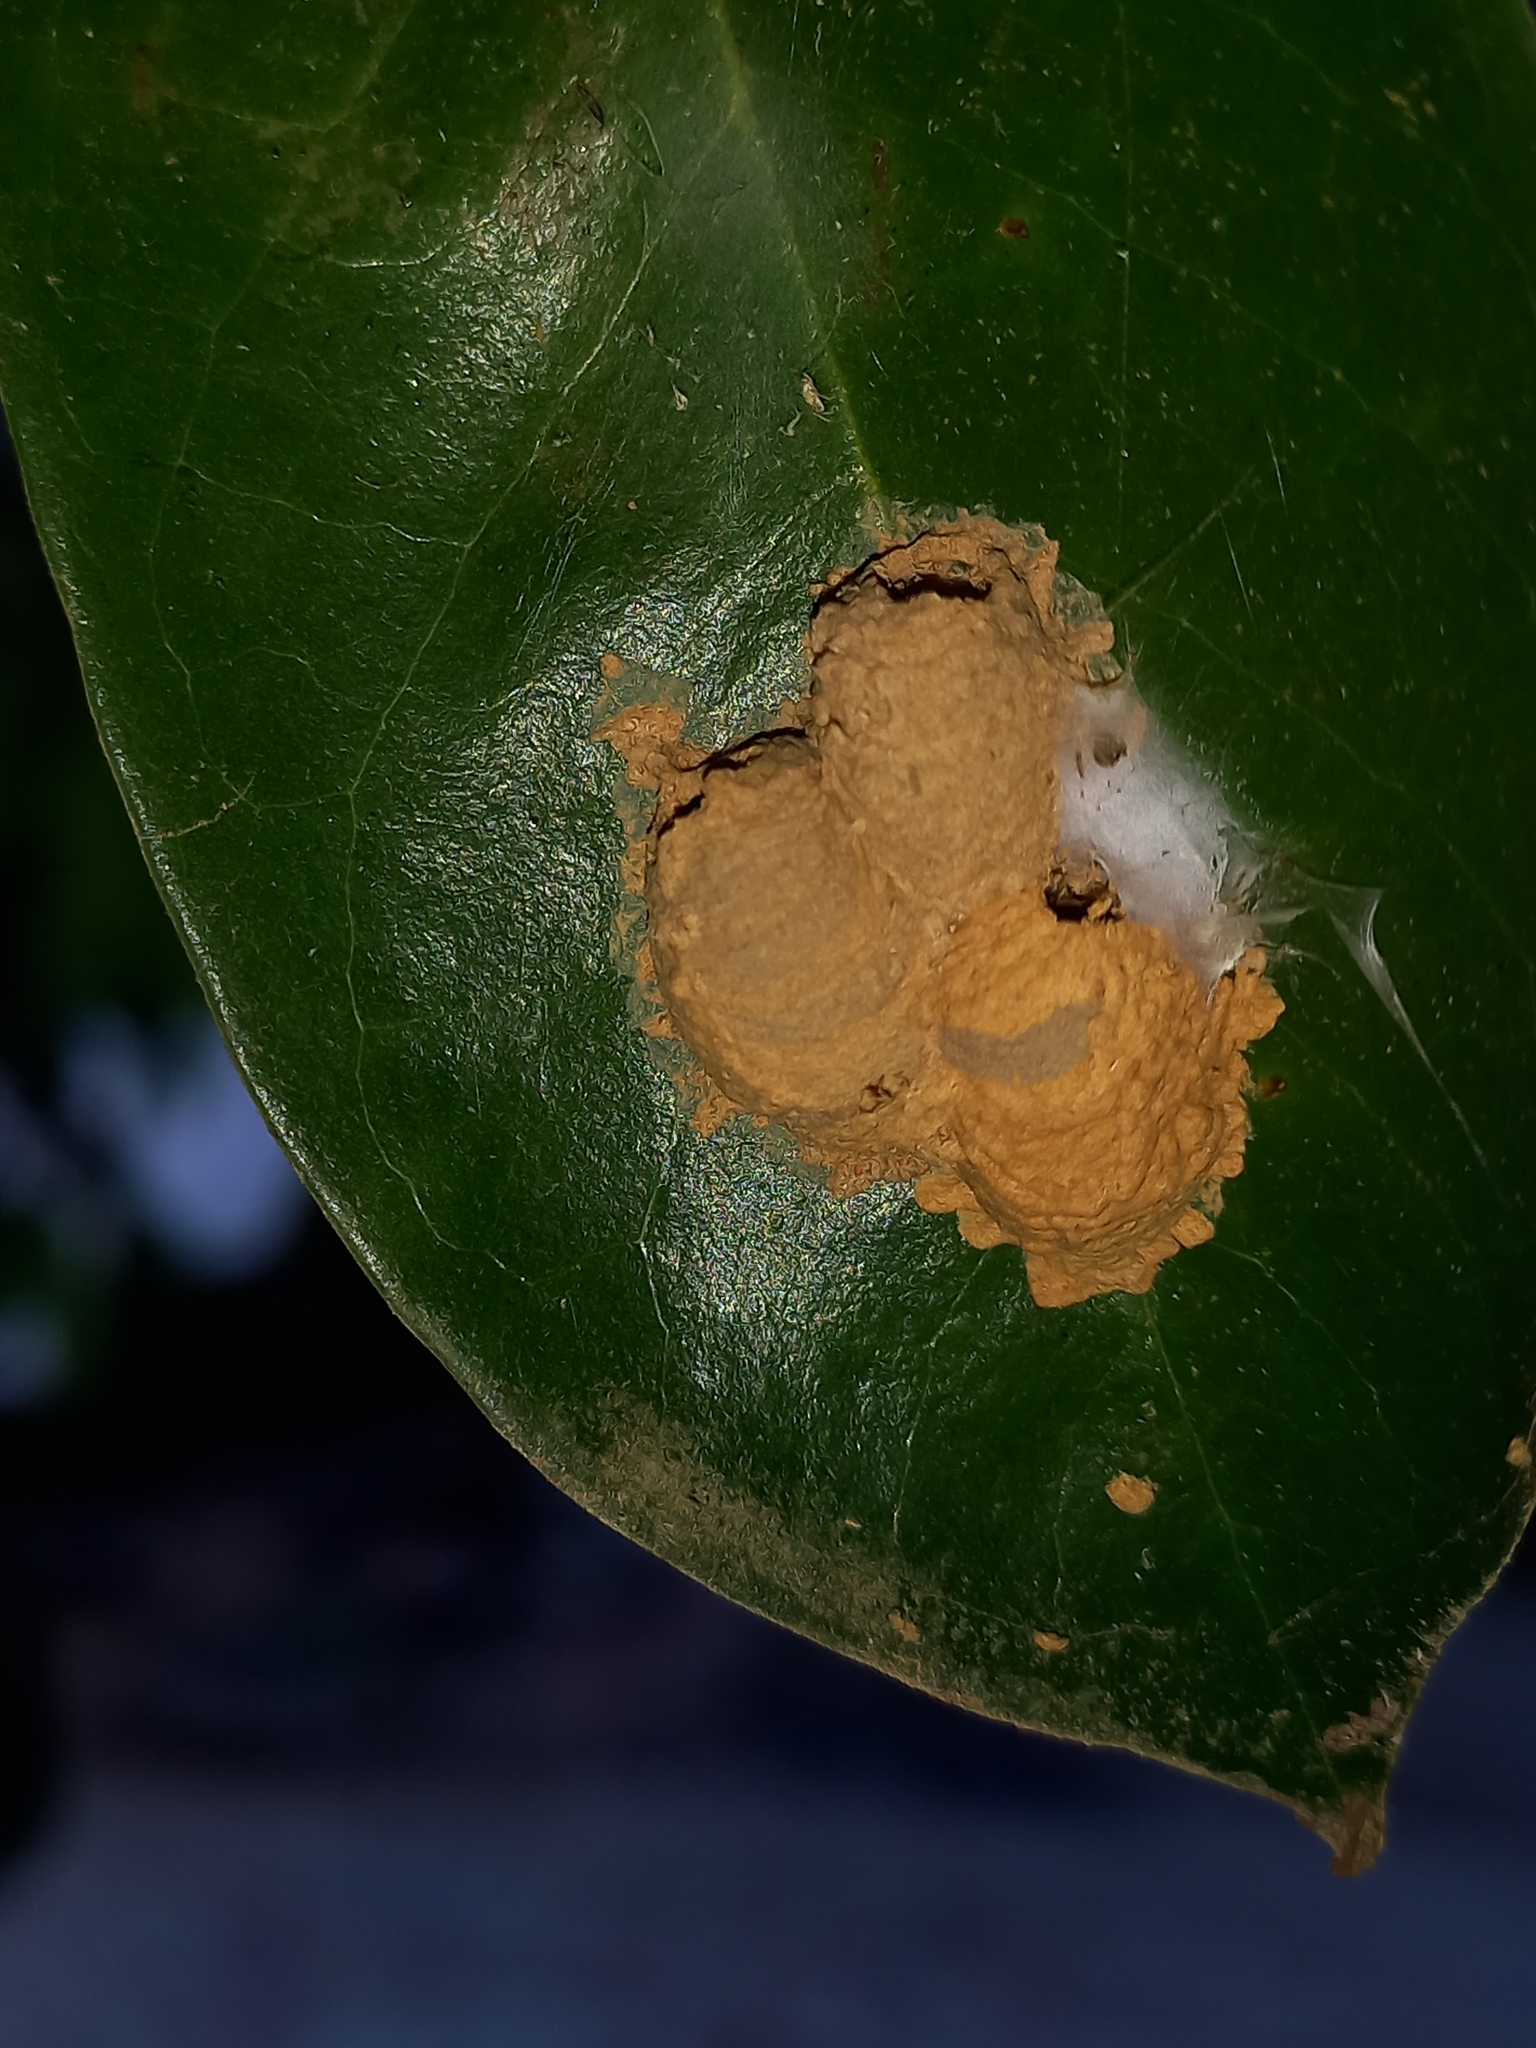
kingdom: Animalia
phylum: Arthropoda
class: Insecta
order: Hymenoptera
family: Eumenidae
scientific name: Eumenidae
